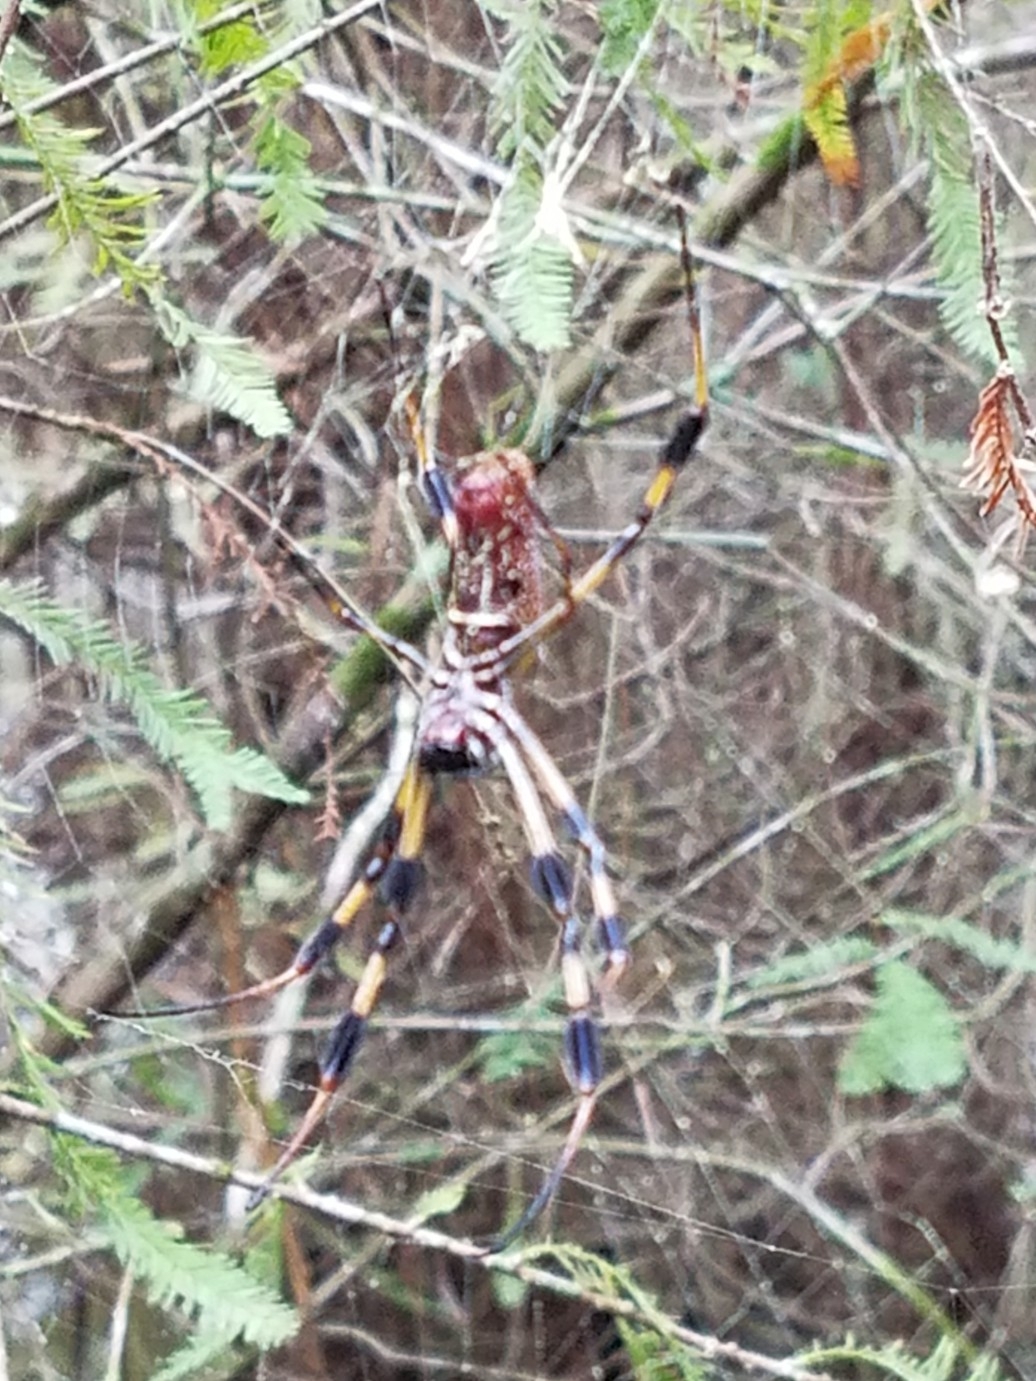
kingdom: Animalia
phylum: Arthropoda
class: Arachnida
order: Araneae
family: Araneidae
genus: Trichonephila
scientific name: Trichonephila clavipes
